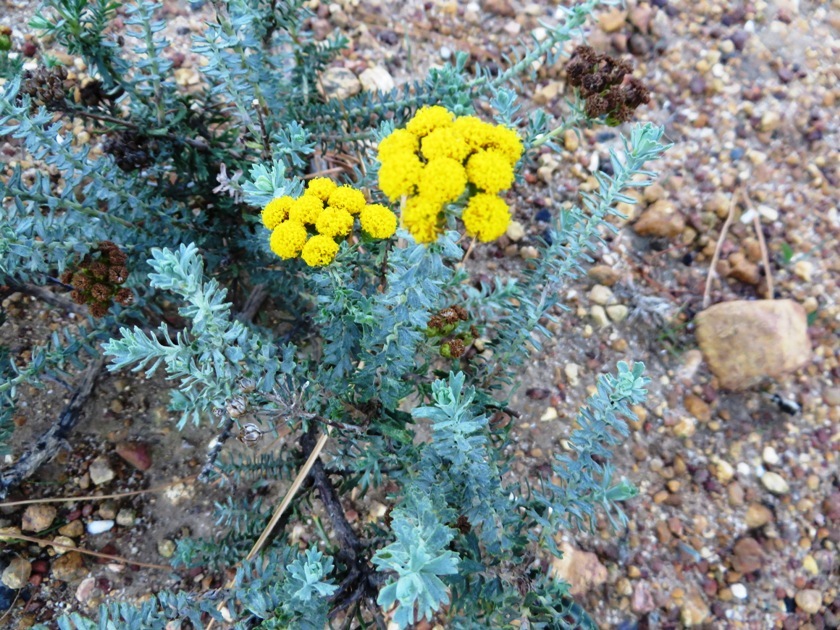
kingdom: Plantae
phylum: Tracheophyta
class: Magnoliopsida
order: Asterales
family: Asteraceae
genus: Athanasia
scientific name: Athanasia trifurcata
